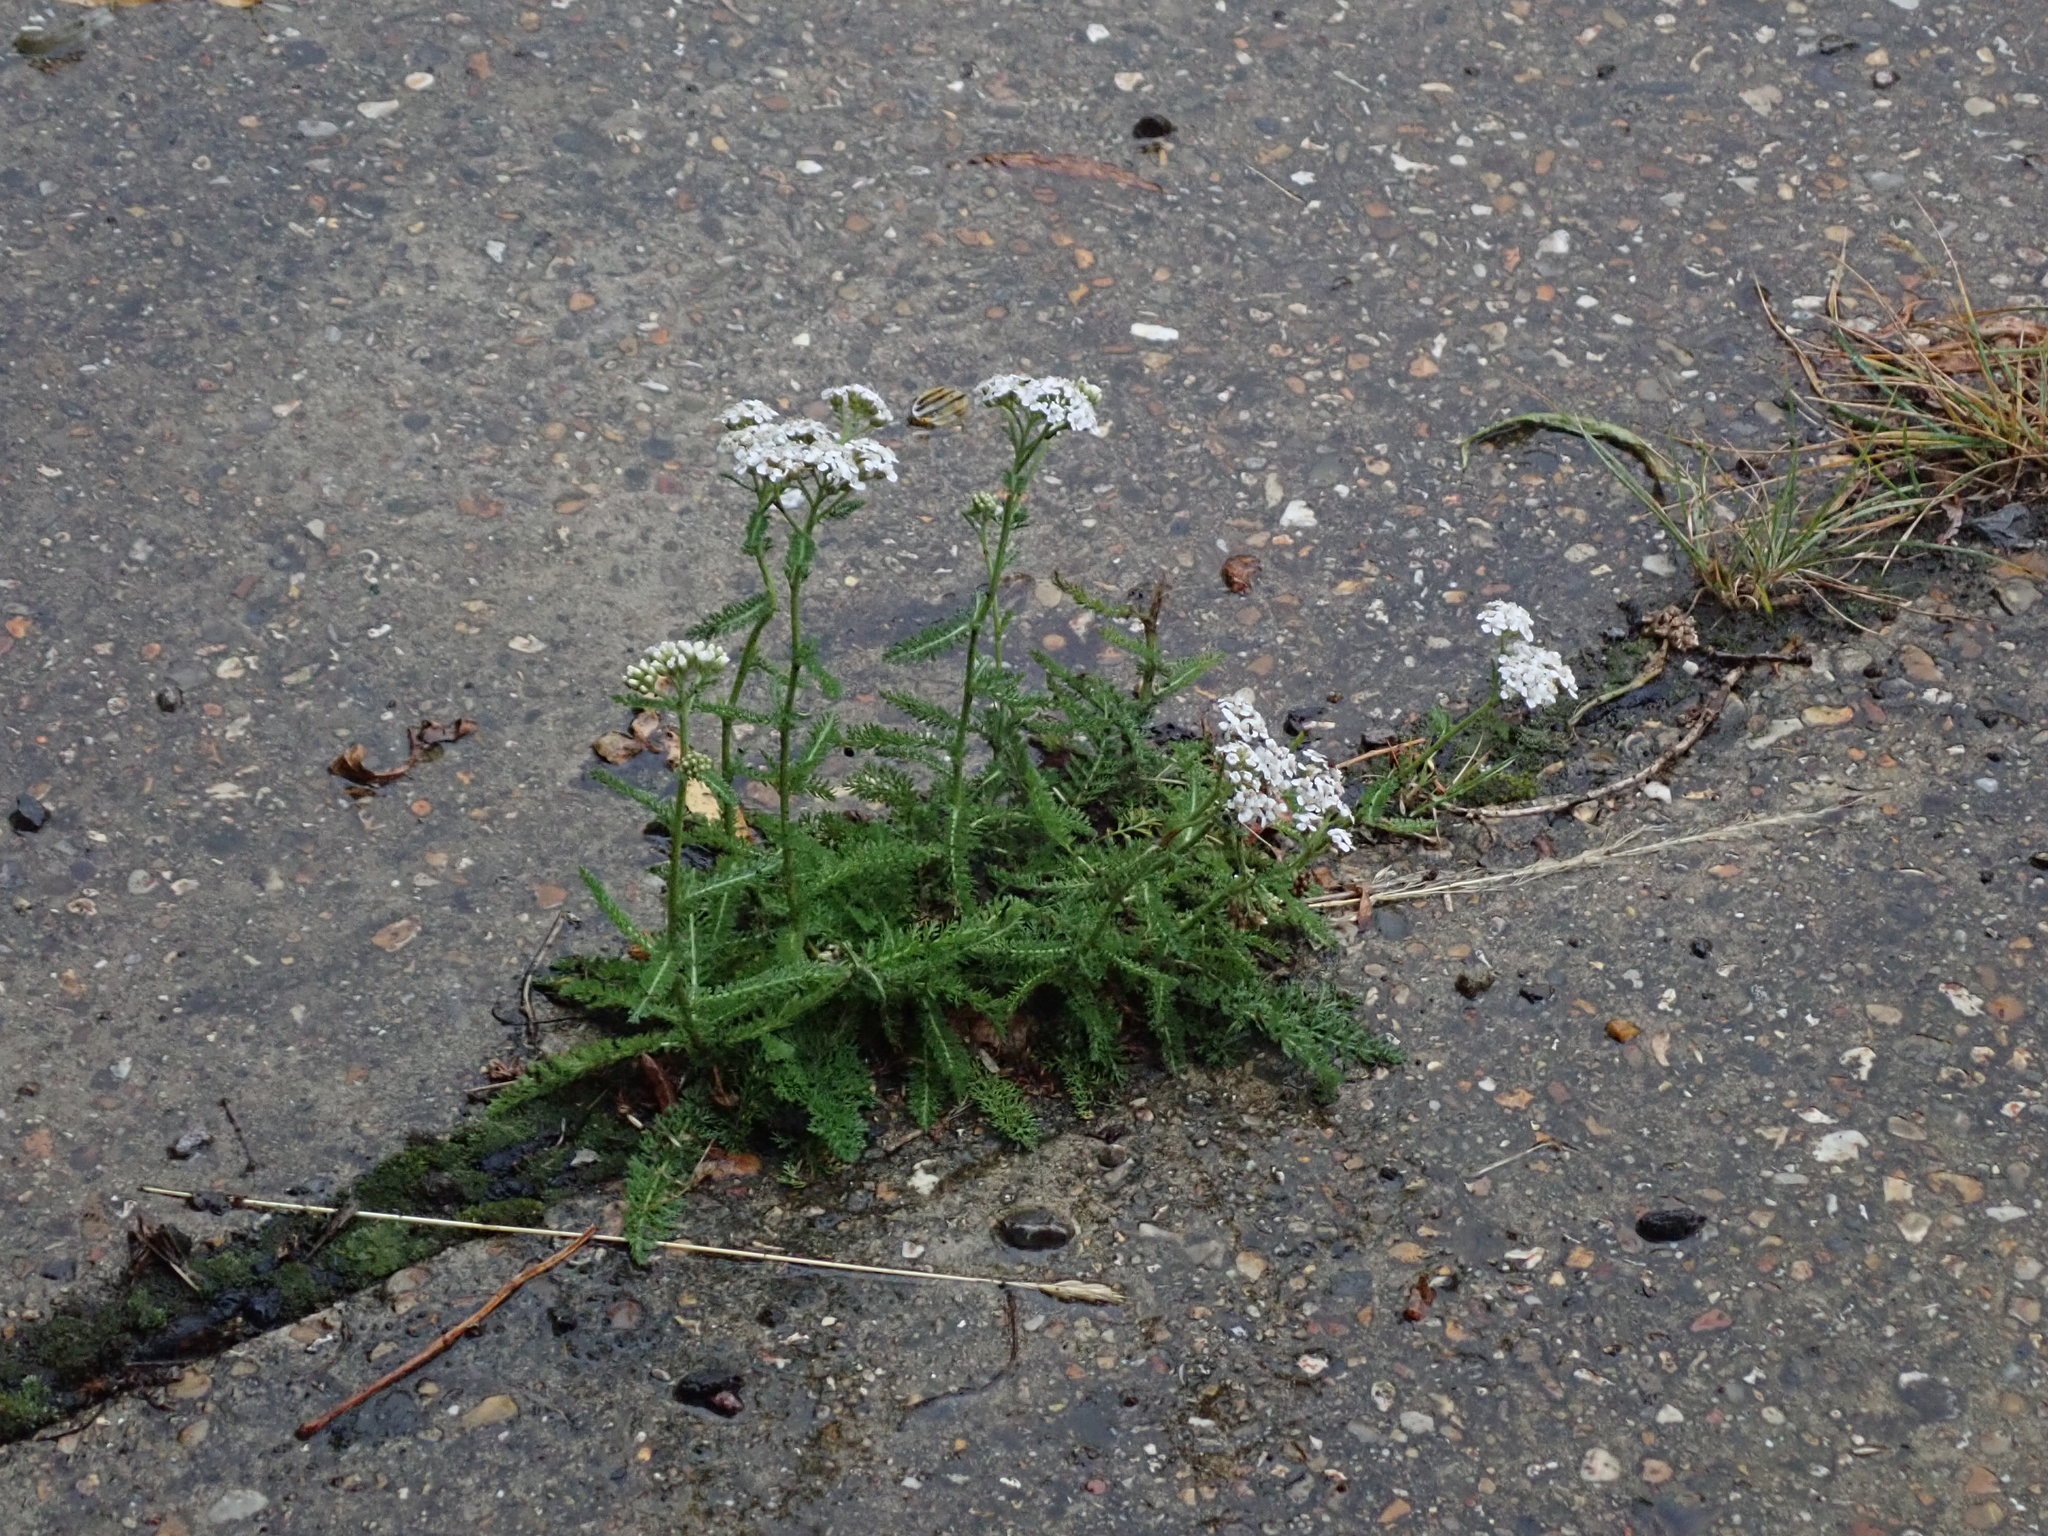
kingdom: Plantae
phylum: Tracheophyta
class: Magnoliopsida
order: Asterales
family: Asteraceae
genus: Achillea
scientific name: Achillea millefolium
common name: Yarrow
